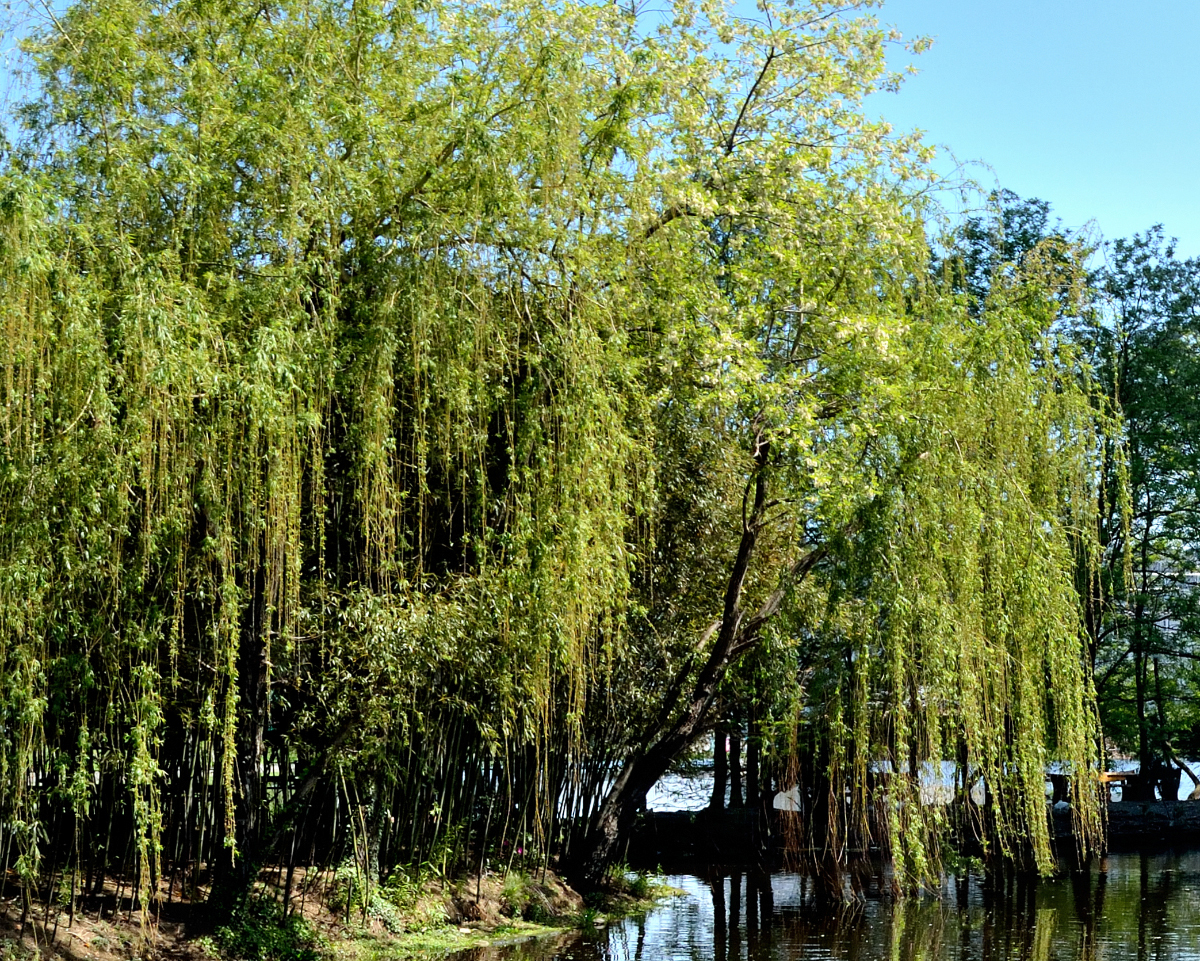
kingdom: Plantae
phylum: Tracheophyta
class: Magnoliopsida
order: Malpighiales
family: Salicaceae
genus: Salix
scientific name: Salix babylonica
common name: Weeping willow
